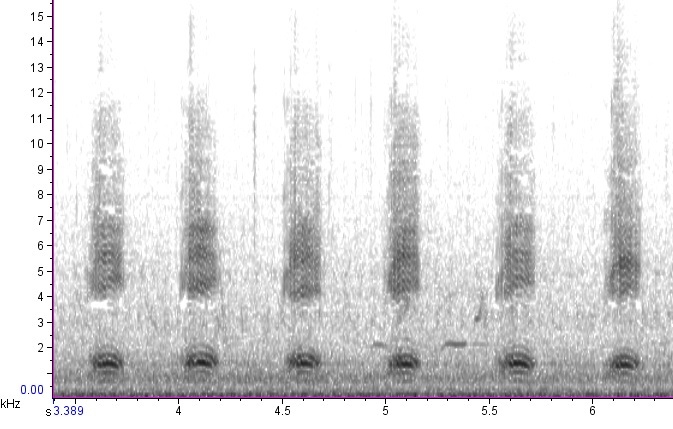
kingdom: Animalia
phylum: Chordata
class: Aves
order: Passeriformes
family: Corvidae
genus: Corvus
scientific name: Corvus ossifragus
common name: Fish crow
